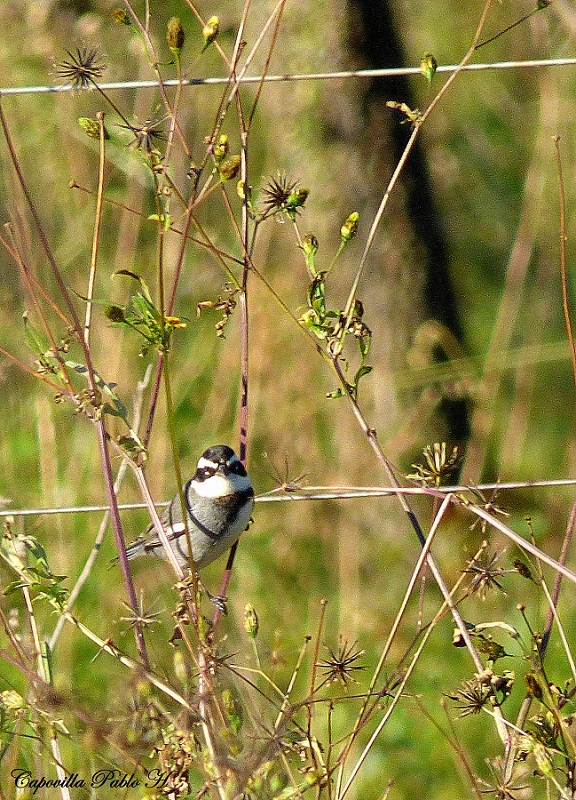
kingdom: Animalia
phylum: Chordata
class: Aves
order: Passeriformes
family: Thraupidae
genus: Microspingus
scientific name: Microspingus torquatus
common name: Ringed warbling-finch
